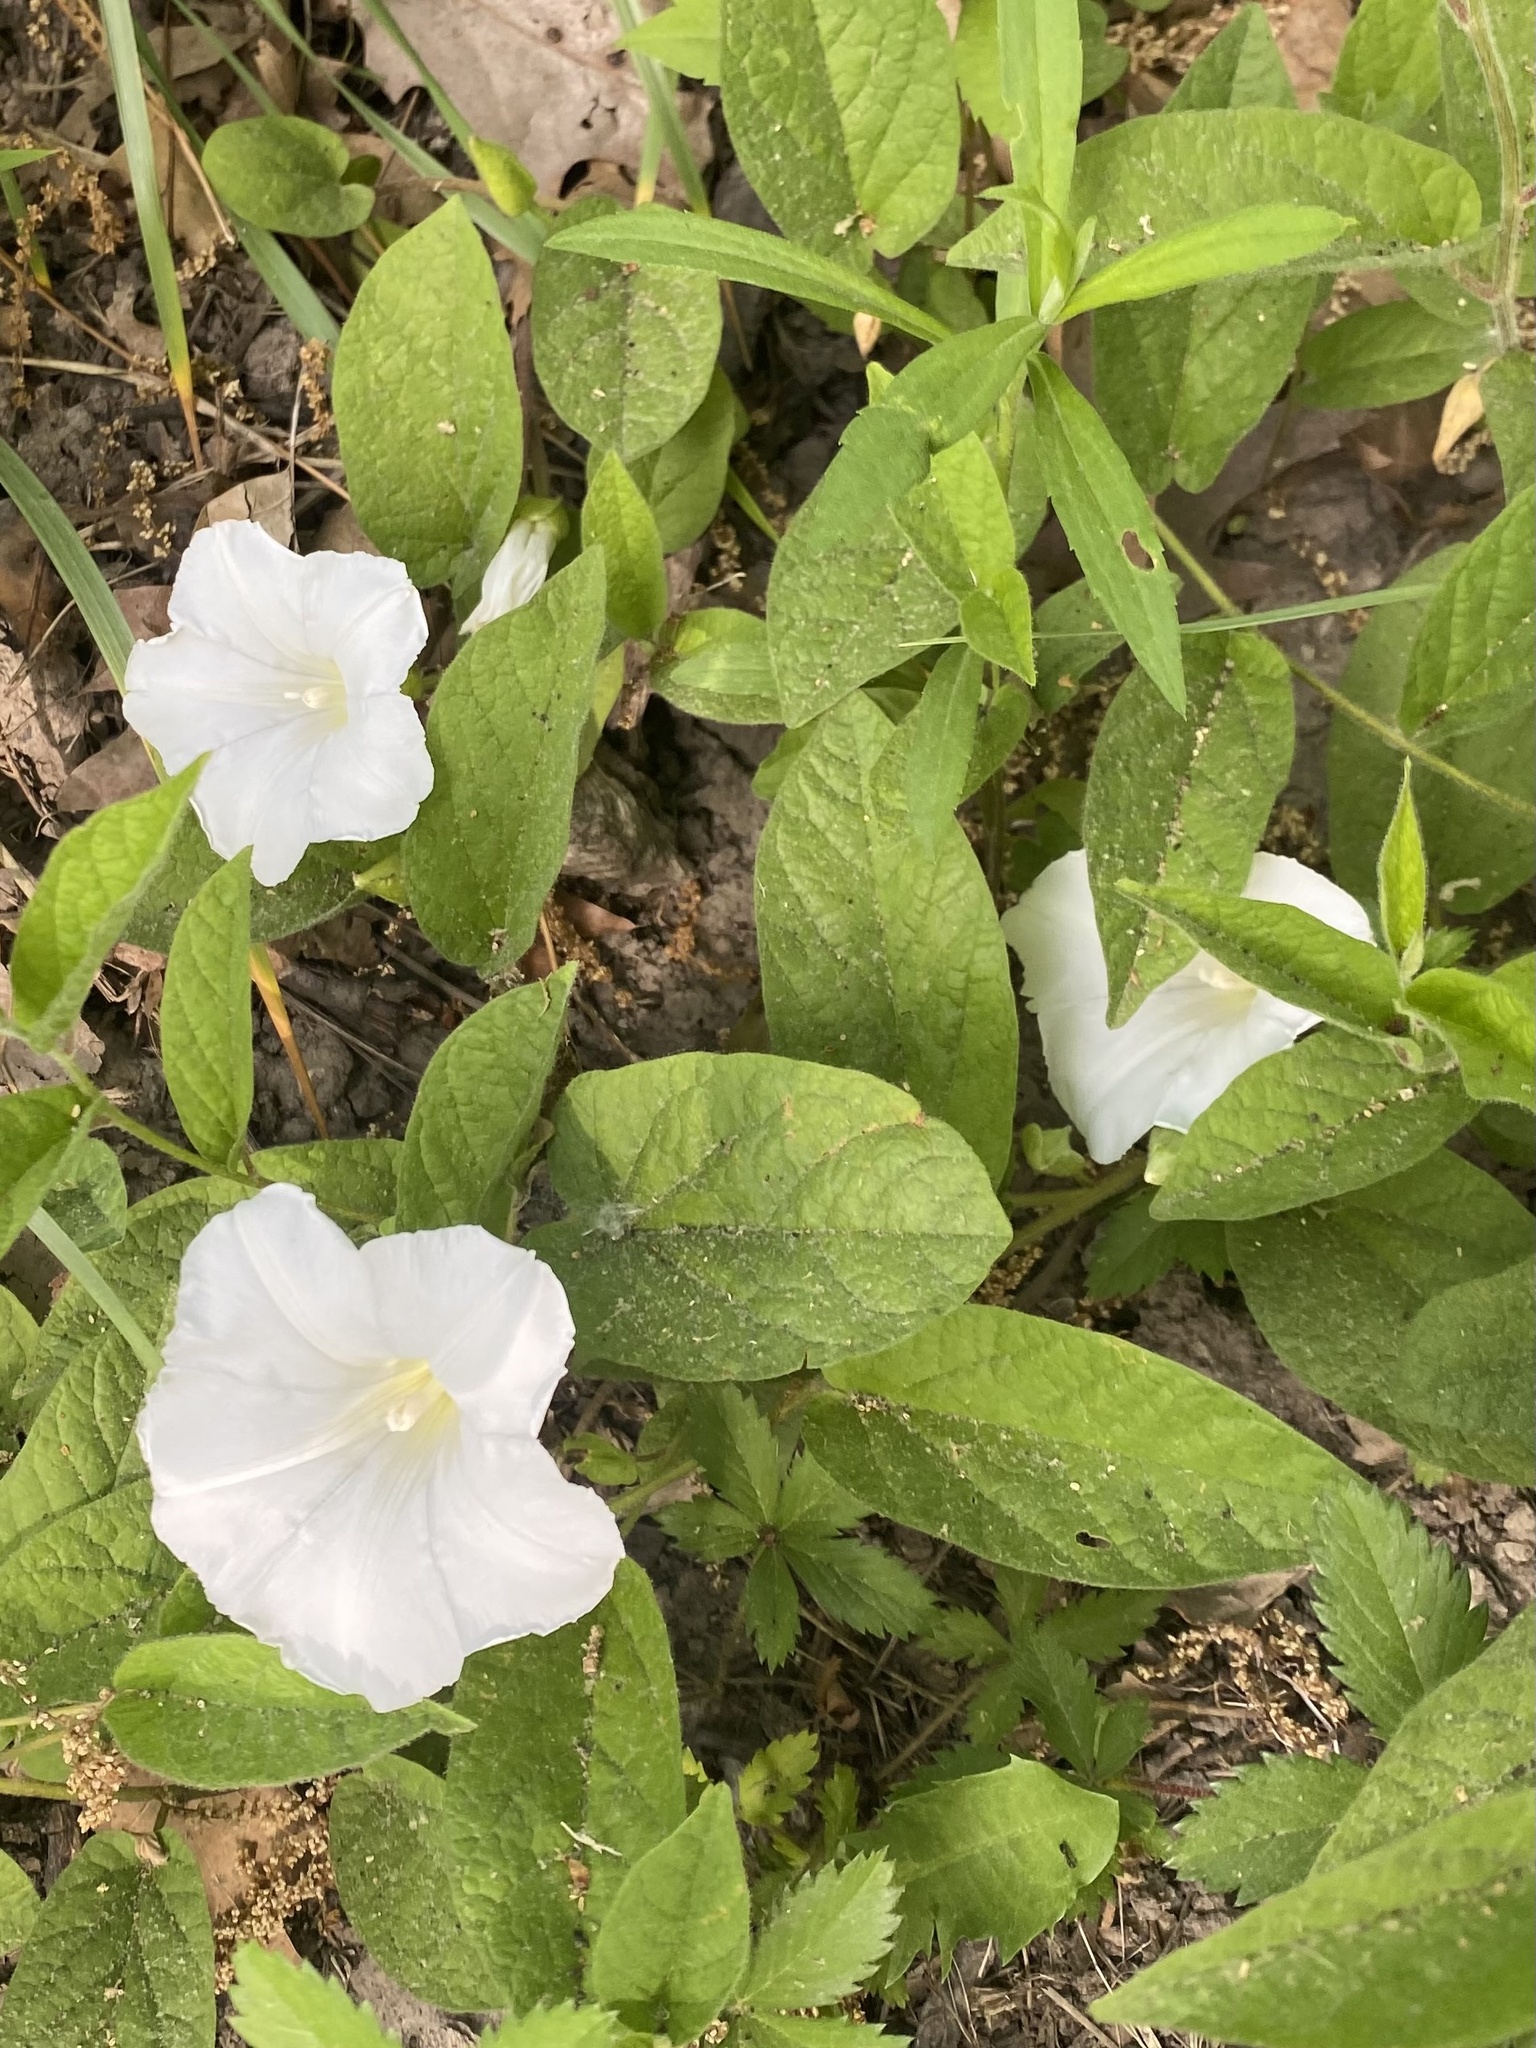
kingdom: Plantae
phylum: Tracheophyta
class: Magnoliopsida
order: Solanales
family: Convolvulaceae
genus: Calystegia
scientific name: Calystegia spithamaea
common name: Dwarf bindweed
